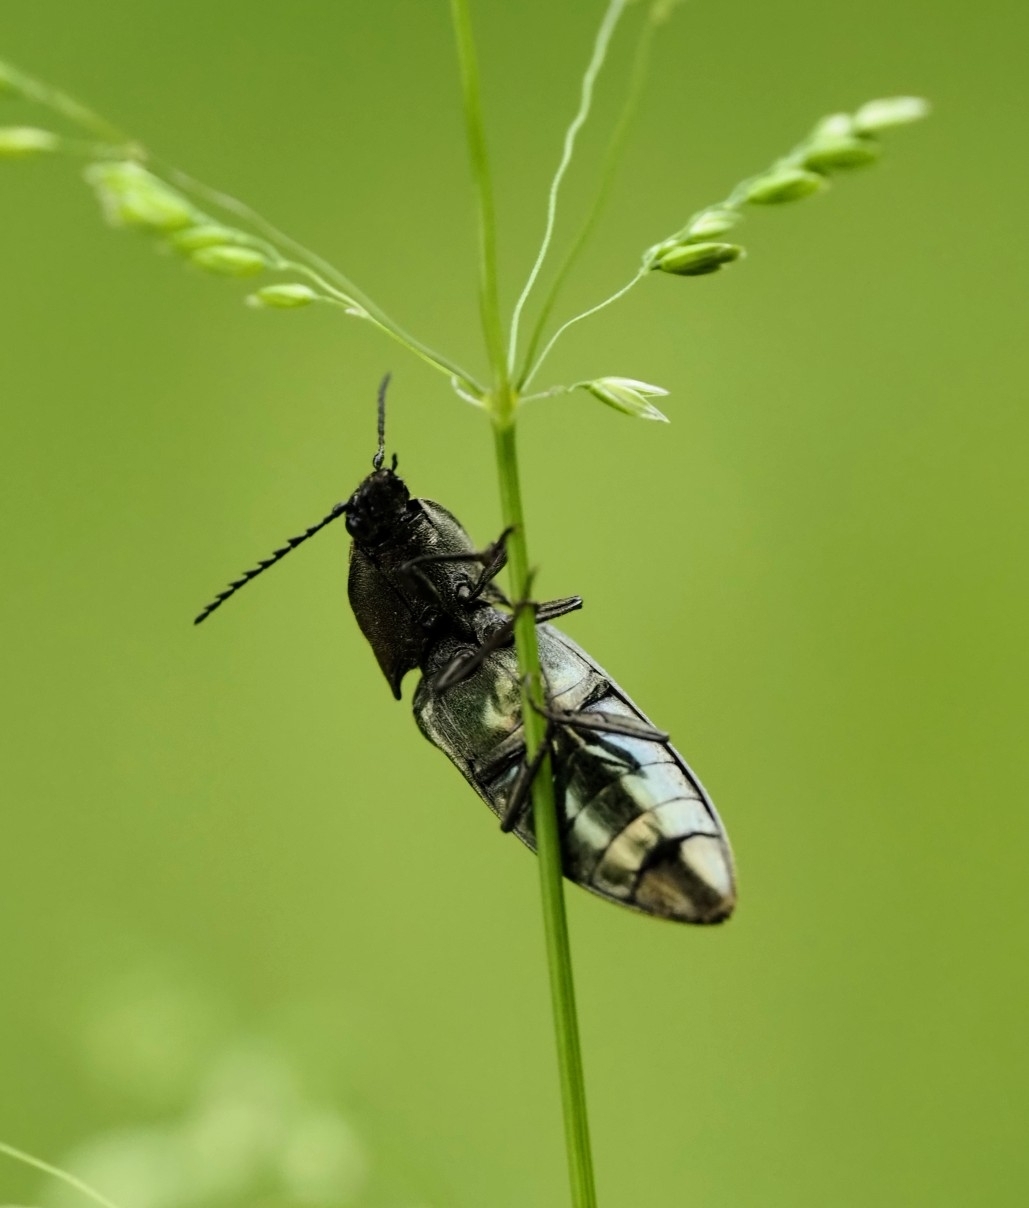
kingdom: Animalia
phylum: Arthropoda
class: Insecta
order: Coleoptera
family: Elateridae
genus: Ctenicera
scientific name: Ctenicera pectinicornis
